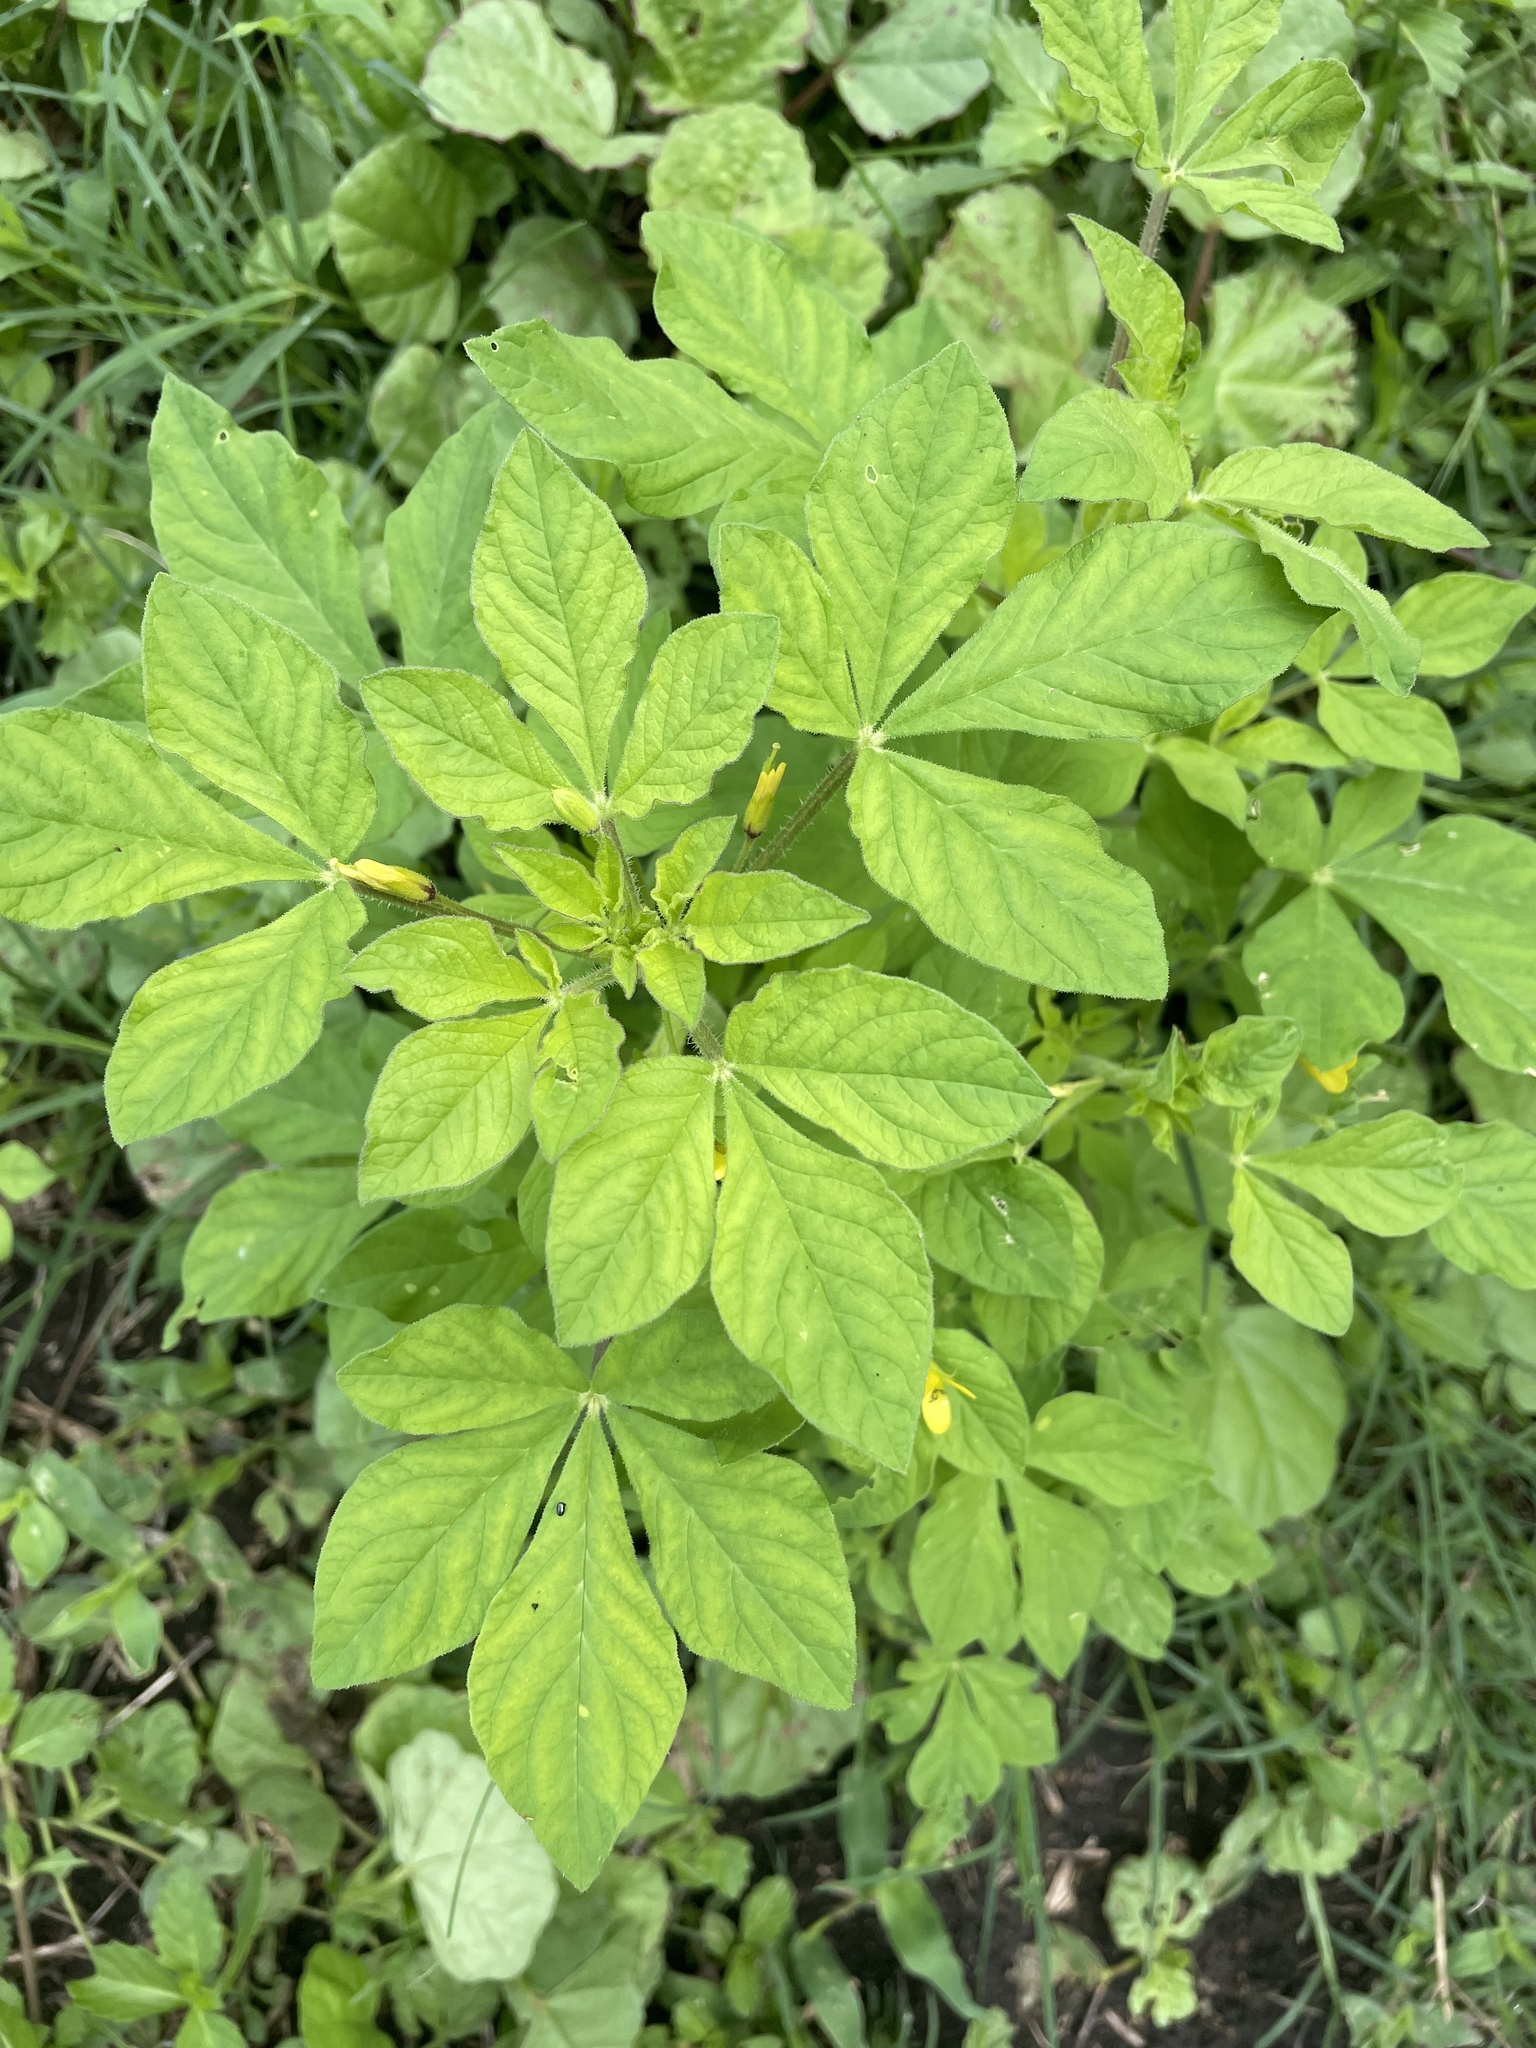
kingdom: Plantae
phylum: Tracheophyta
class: Magnoliopsida
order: Brassicales
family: Cleomaceae
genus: Arivela
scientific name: Arivela viscosa
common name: Asian spiderflower
